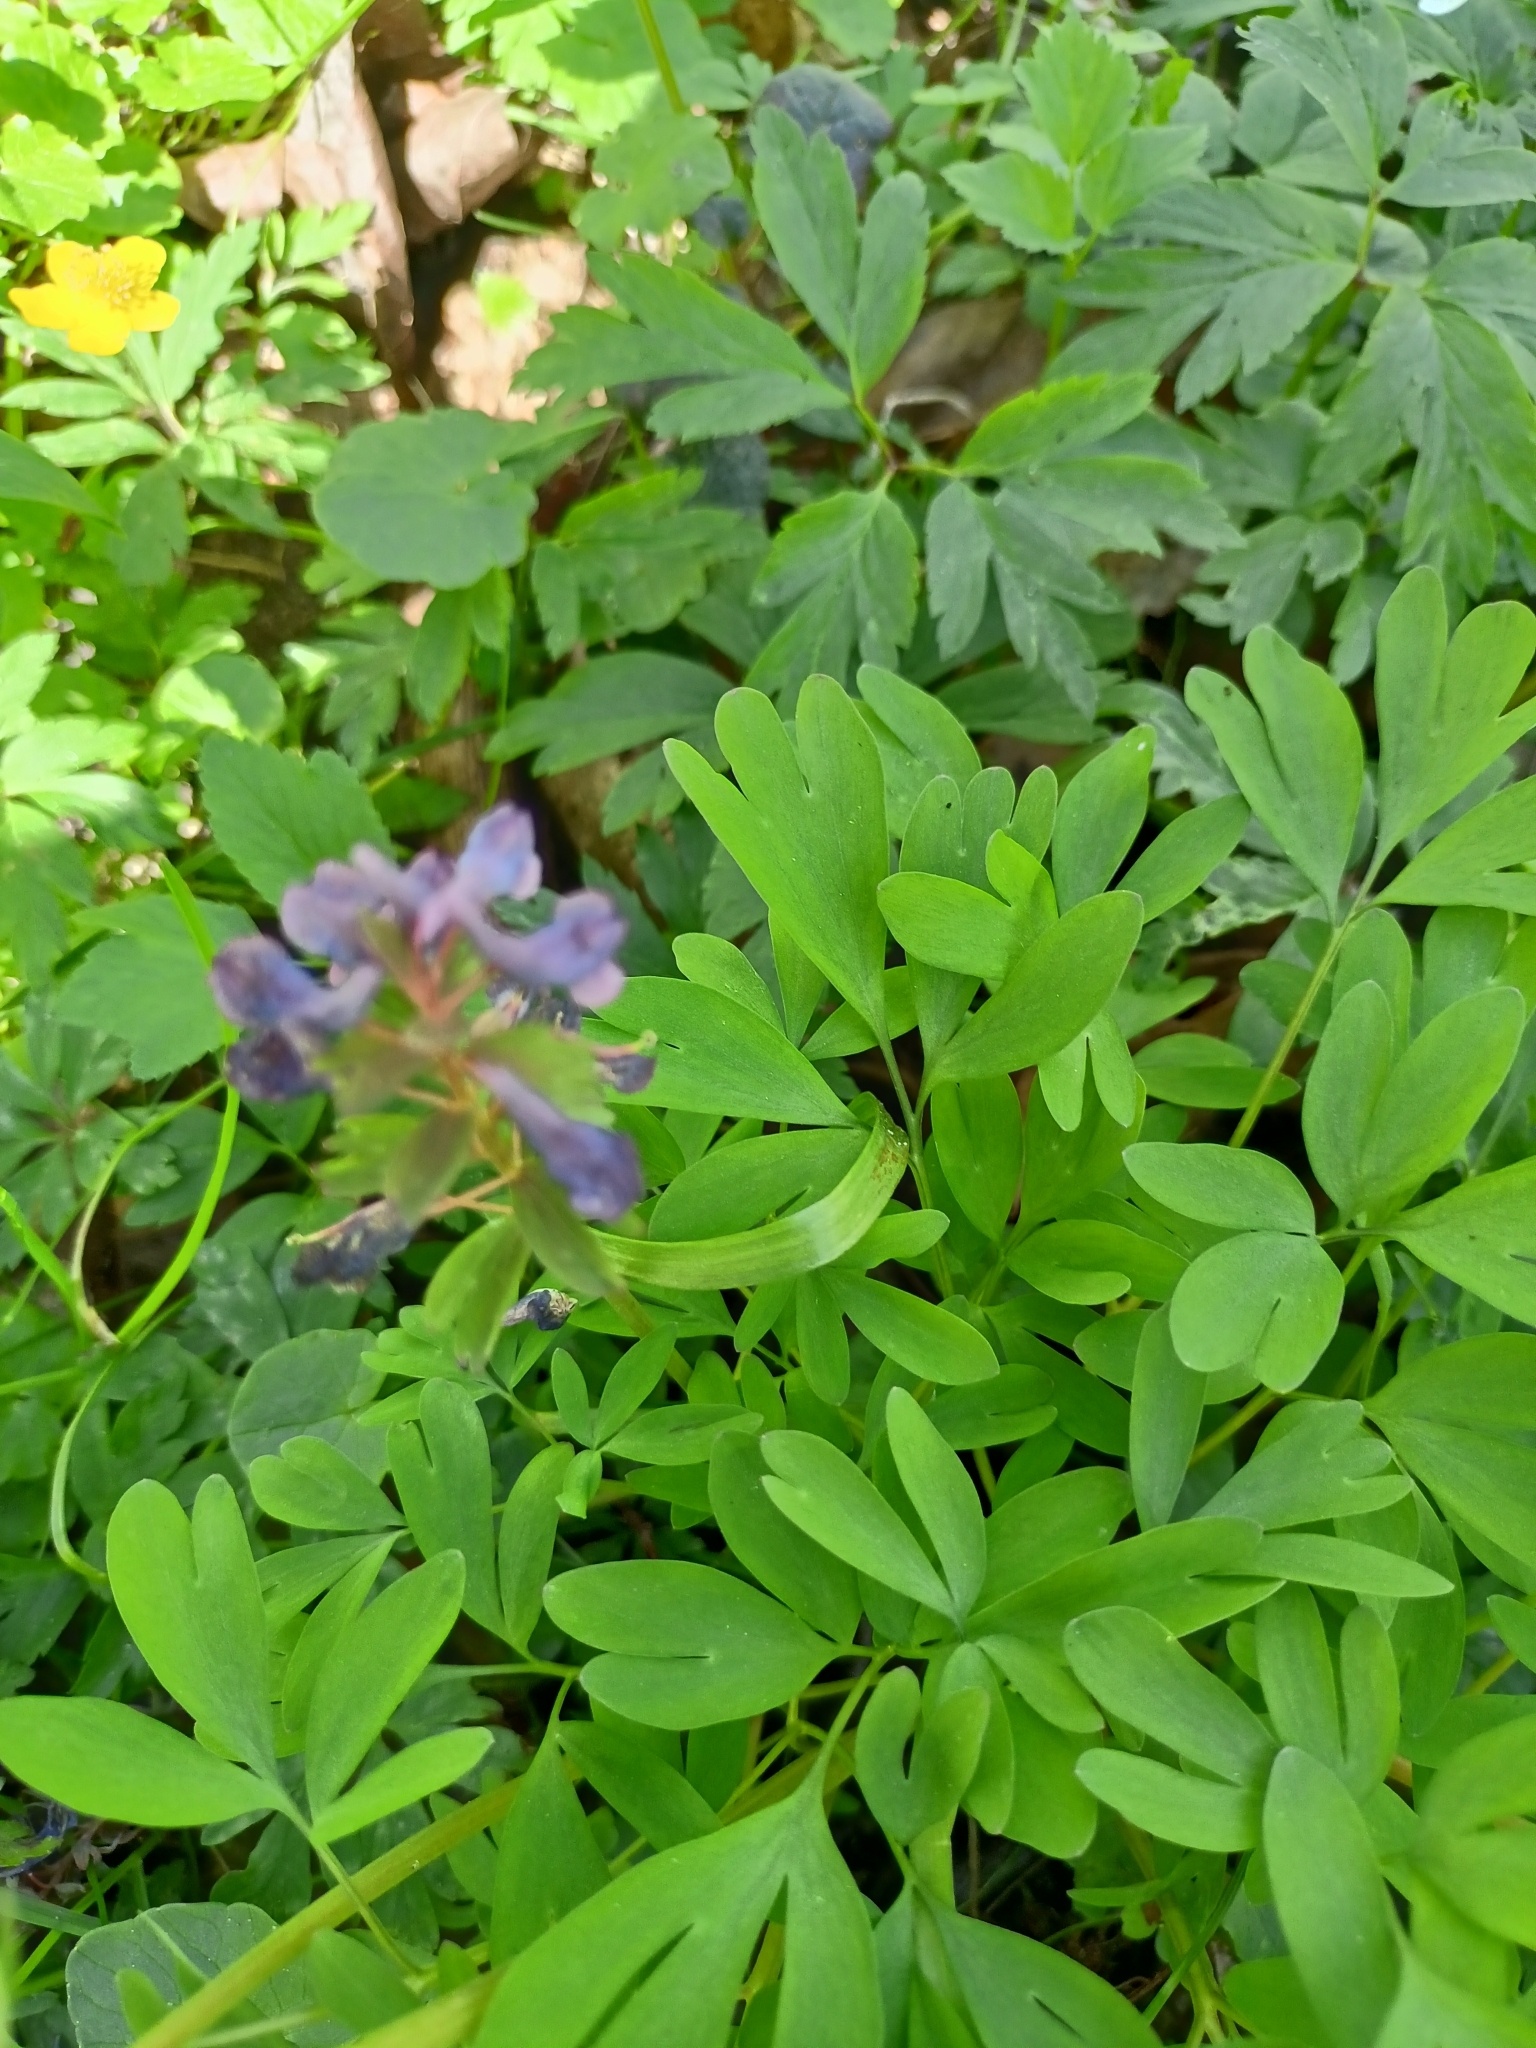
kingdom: Plantae
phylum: Tracheophyta
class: Magnoliopsida
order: Ranunculales
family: Papaveraceae
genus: Corydalis
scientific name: Corydalis solida
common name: Bird-in-a-bush
